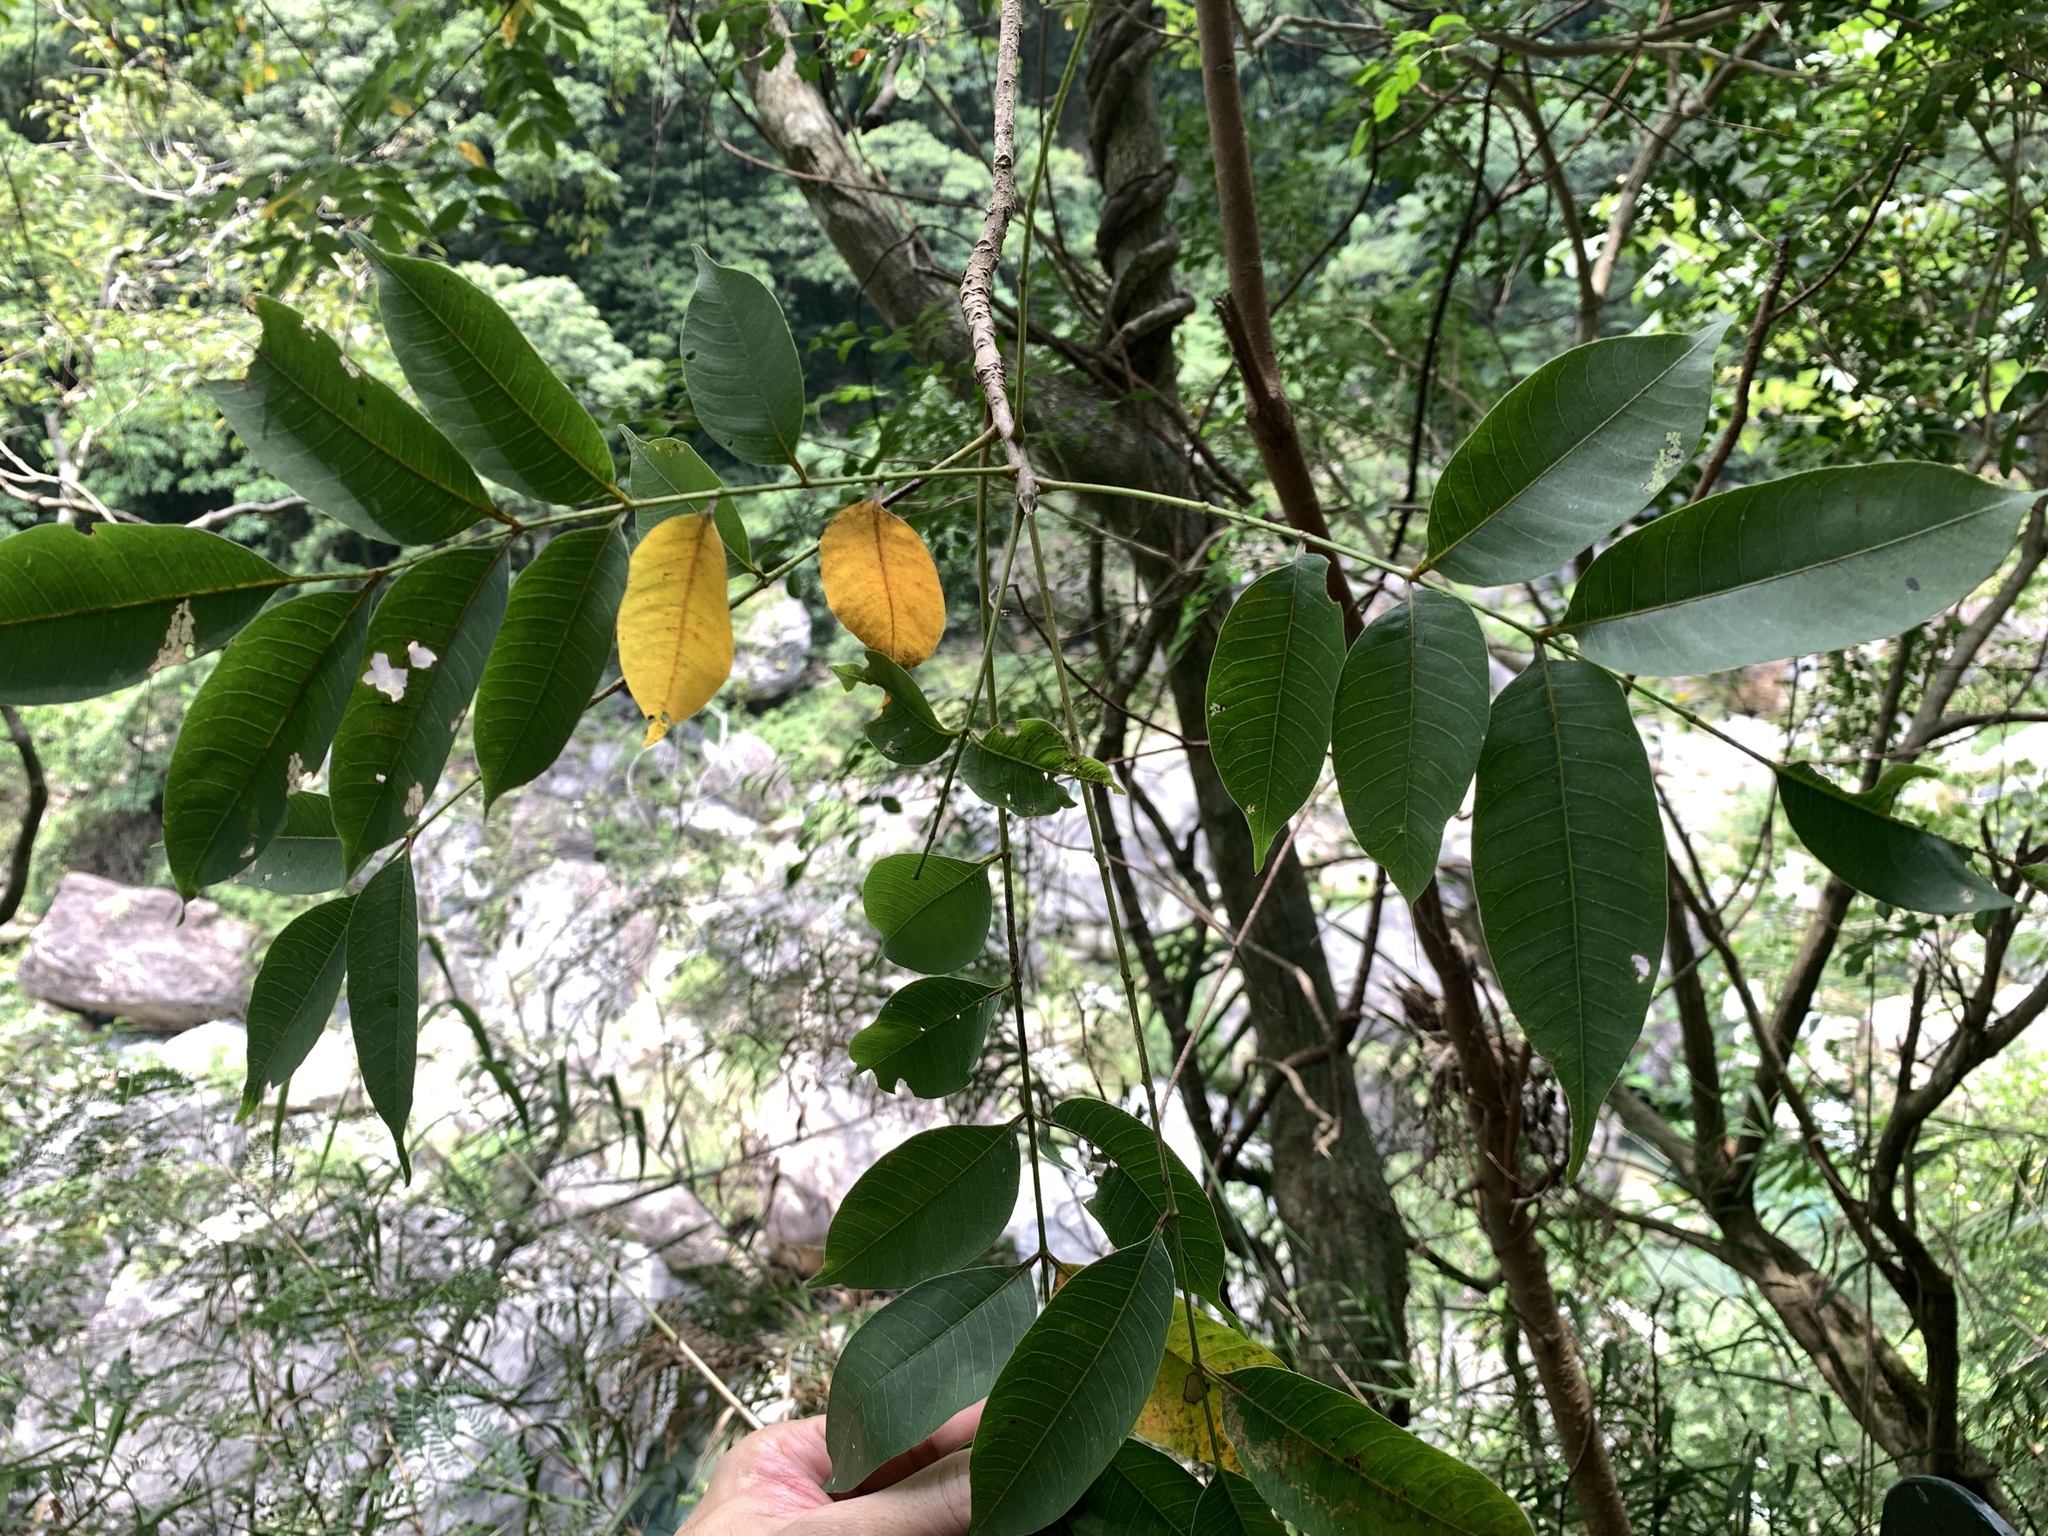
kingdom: Plantae
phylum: Tracheophyta
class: Magnoliopsida
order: Sapindales
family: Anacardiaceae
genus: Toxicodendron
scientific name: Toxicodendron succedaneum
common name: Wax tree
